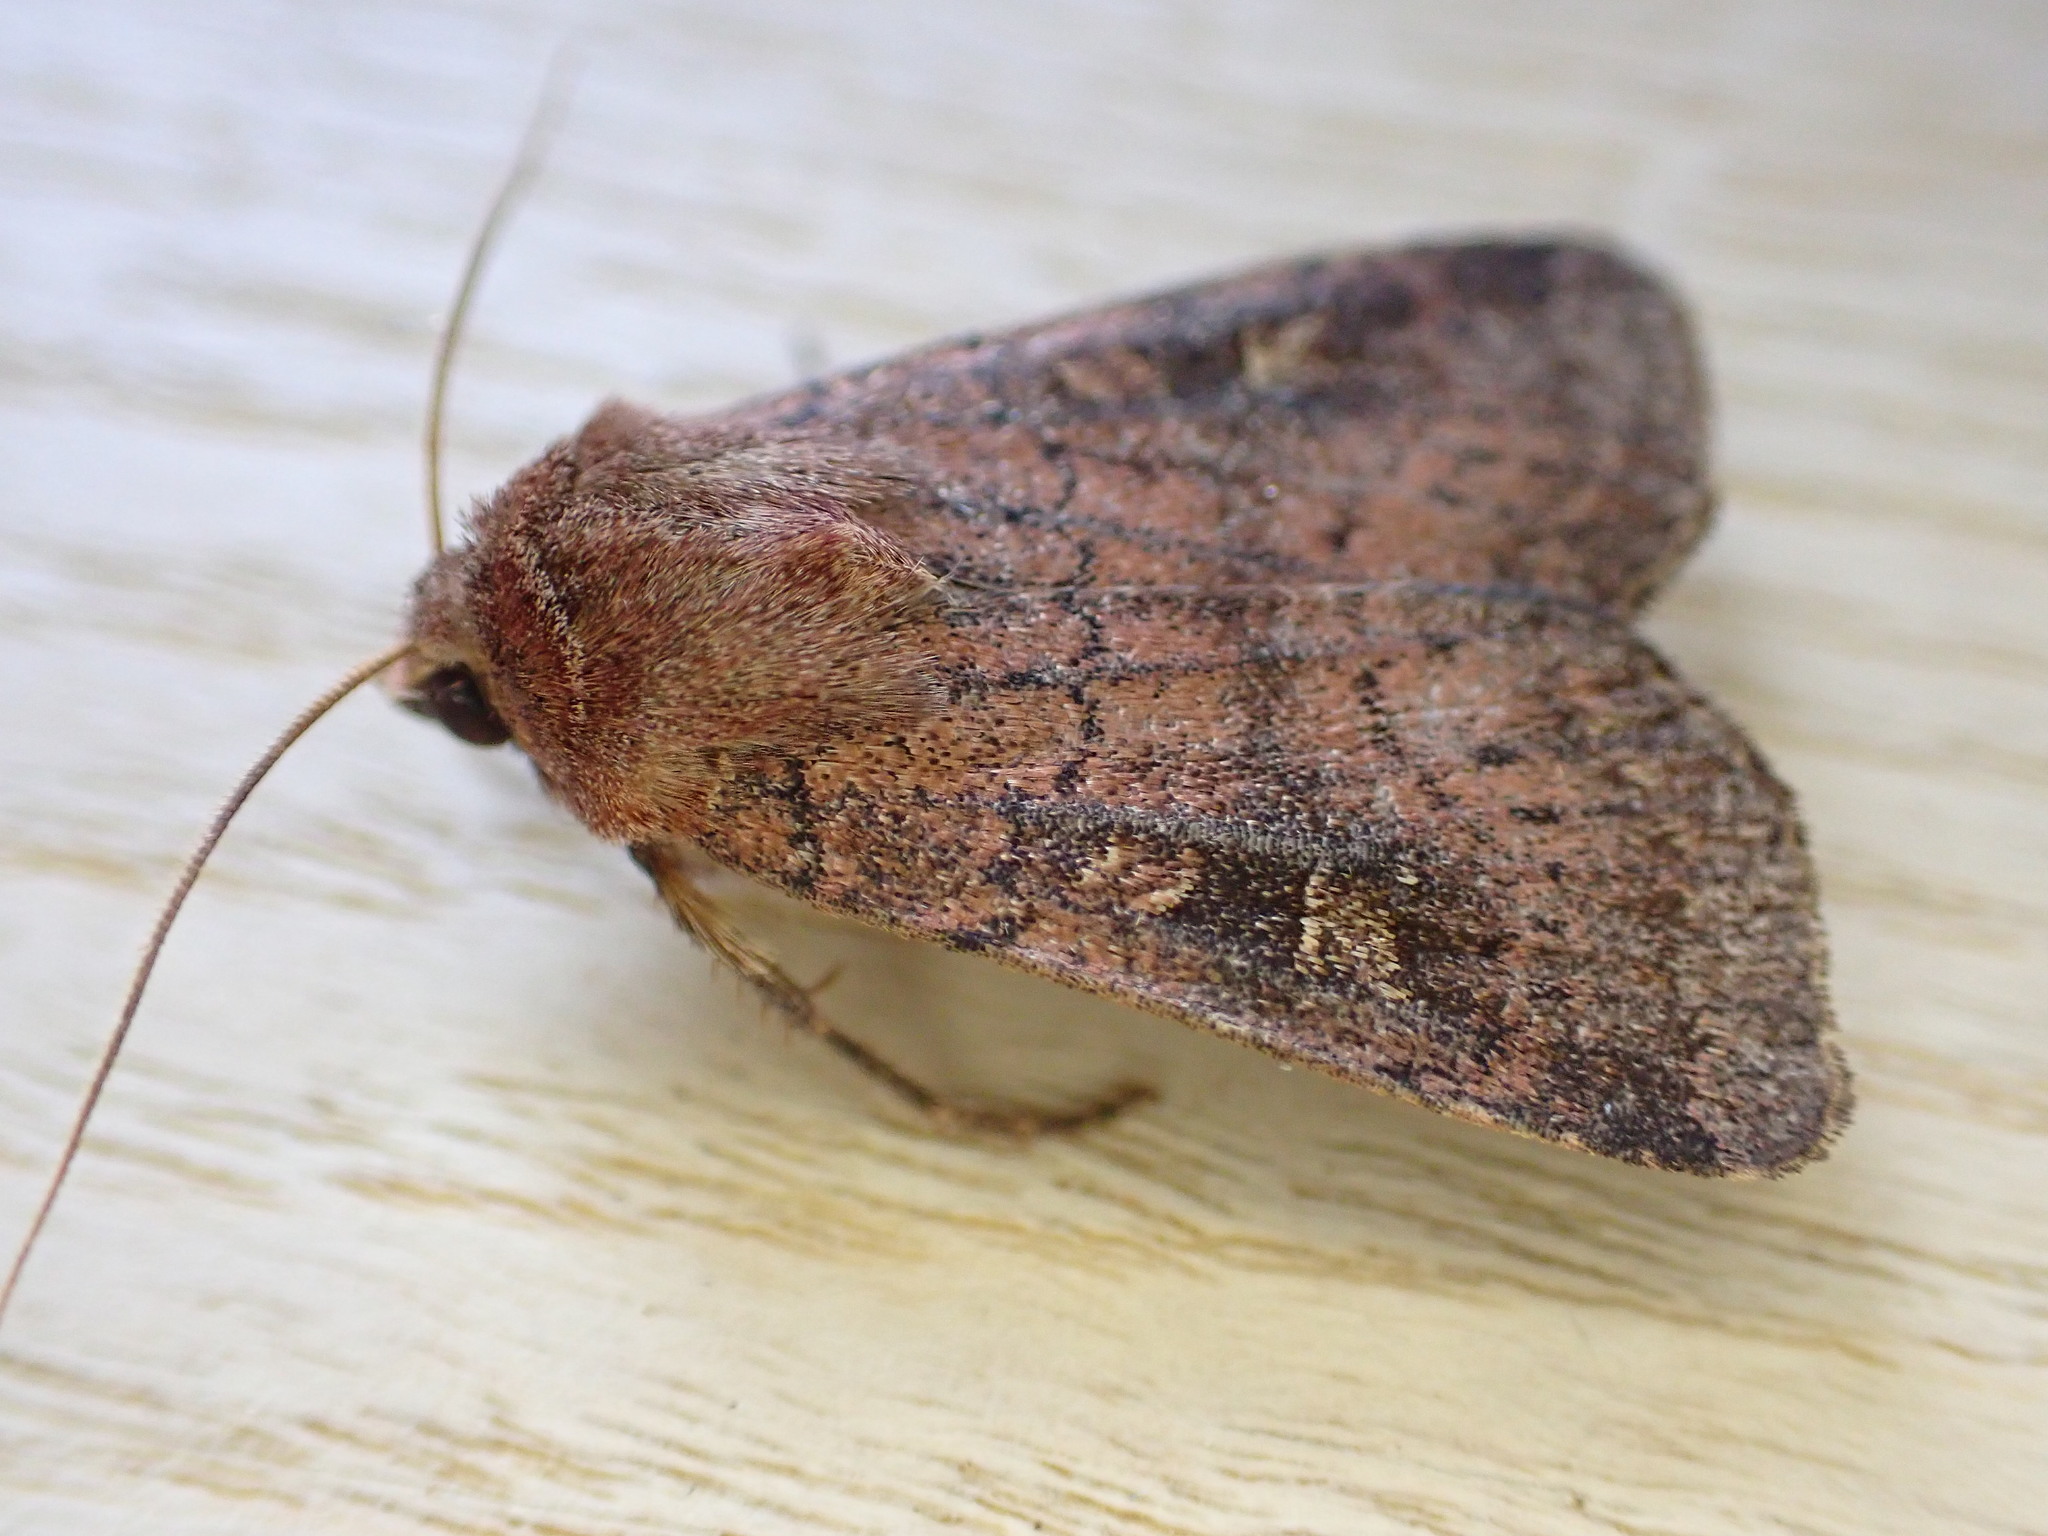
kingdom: Animalia
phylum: Arthropoda
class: Insecta
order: Lepidoptera
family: Noctuidae
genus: Xestia
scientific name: Xestia xanthographa
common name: Square-spot rustic
